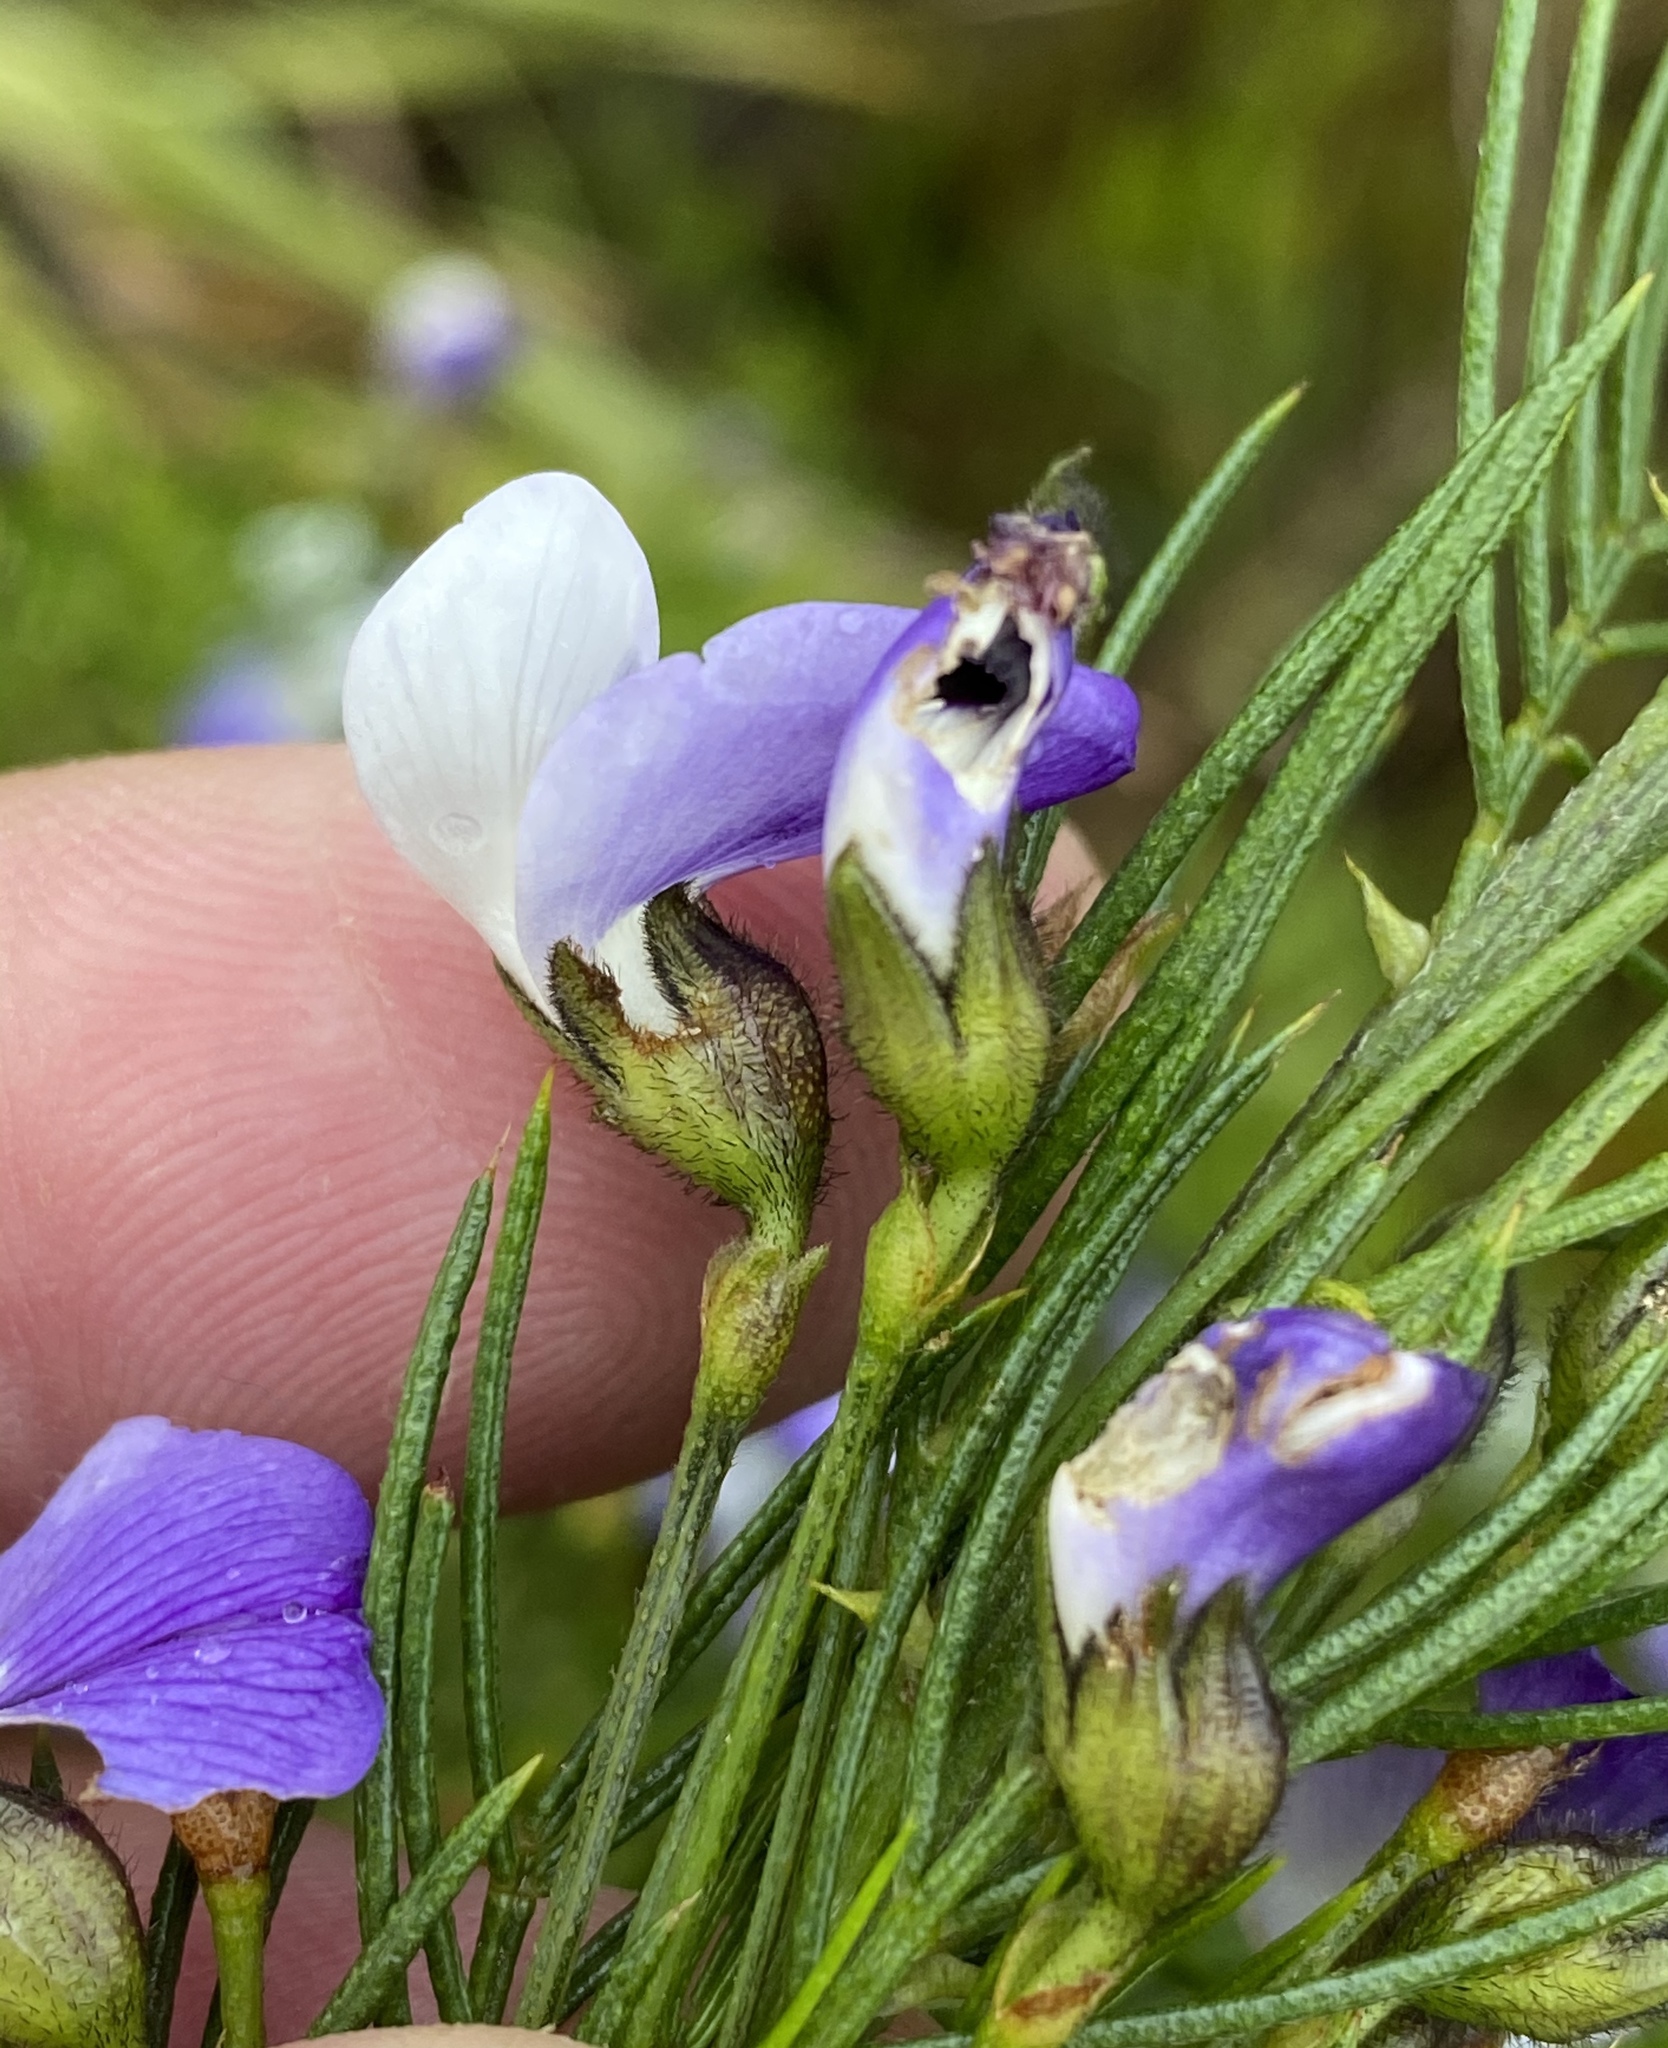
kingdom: Plantae
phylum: Tracheophyta
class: Magnoliopsida
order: Fabales
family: Fabaceae
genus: Psoralea
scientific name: Psoralea arborea
